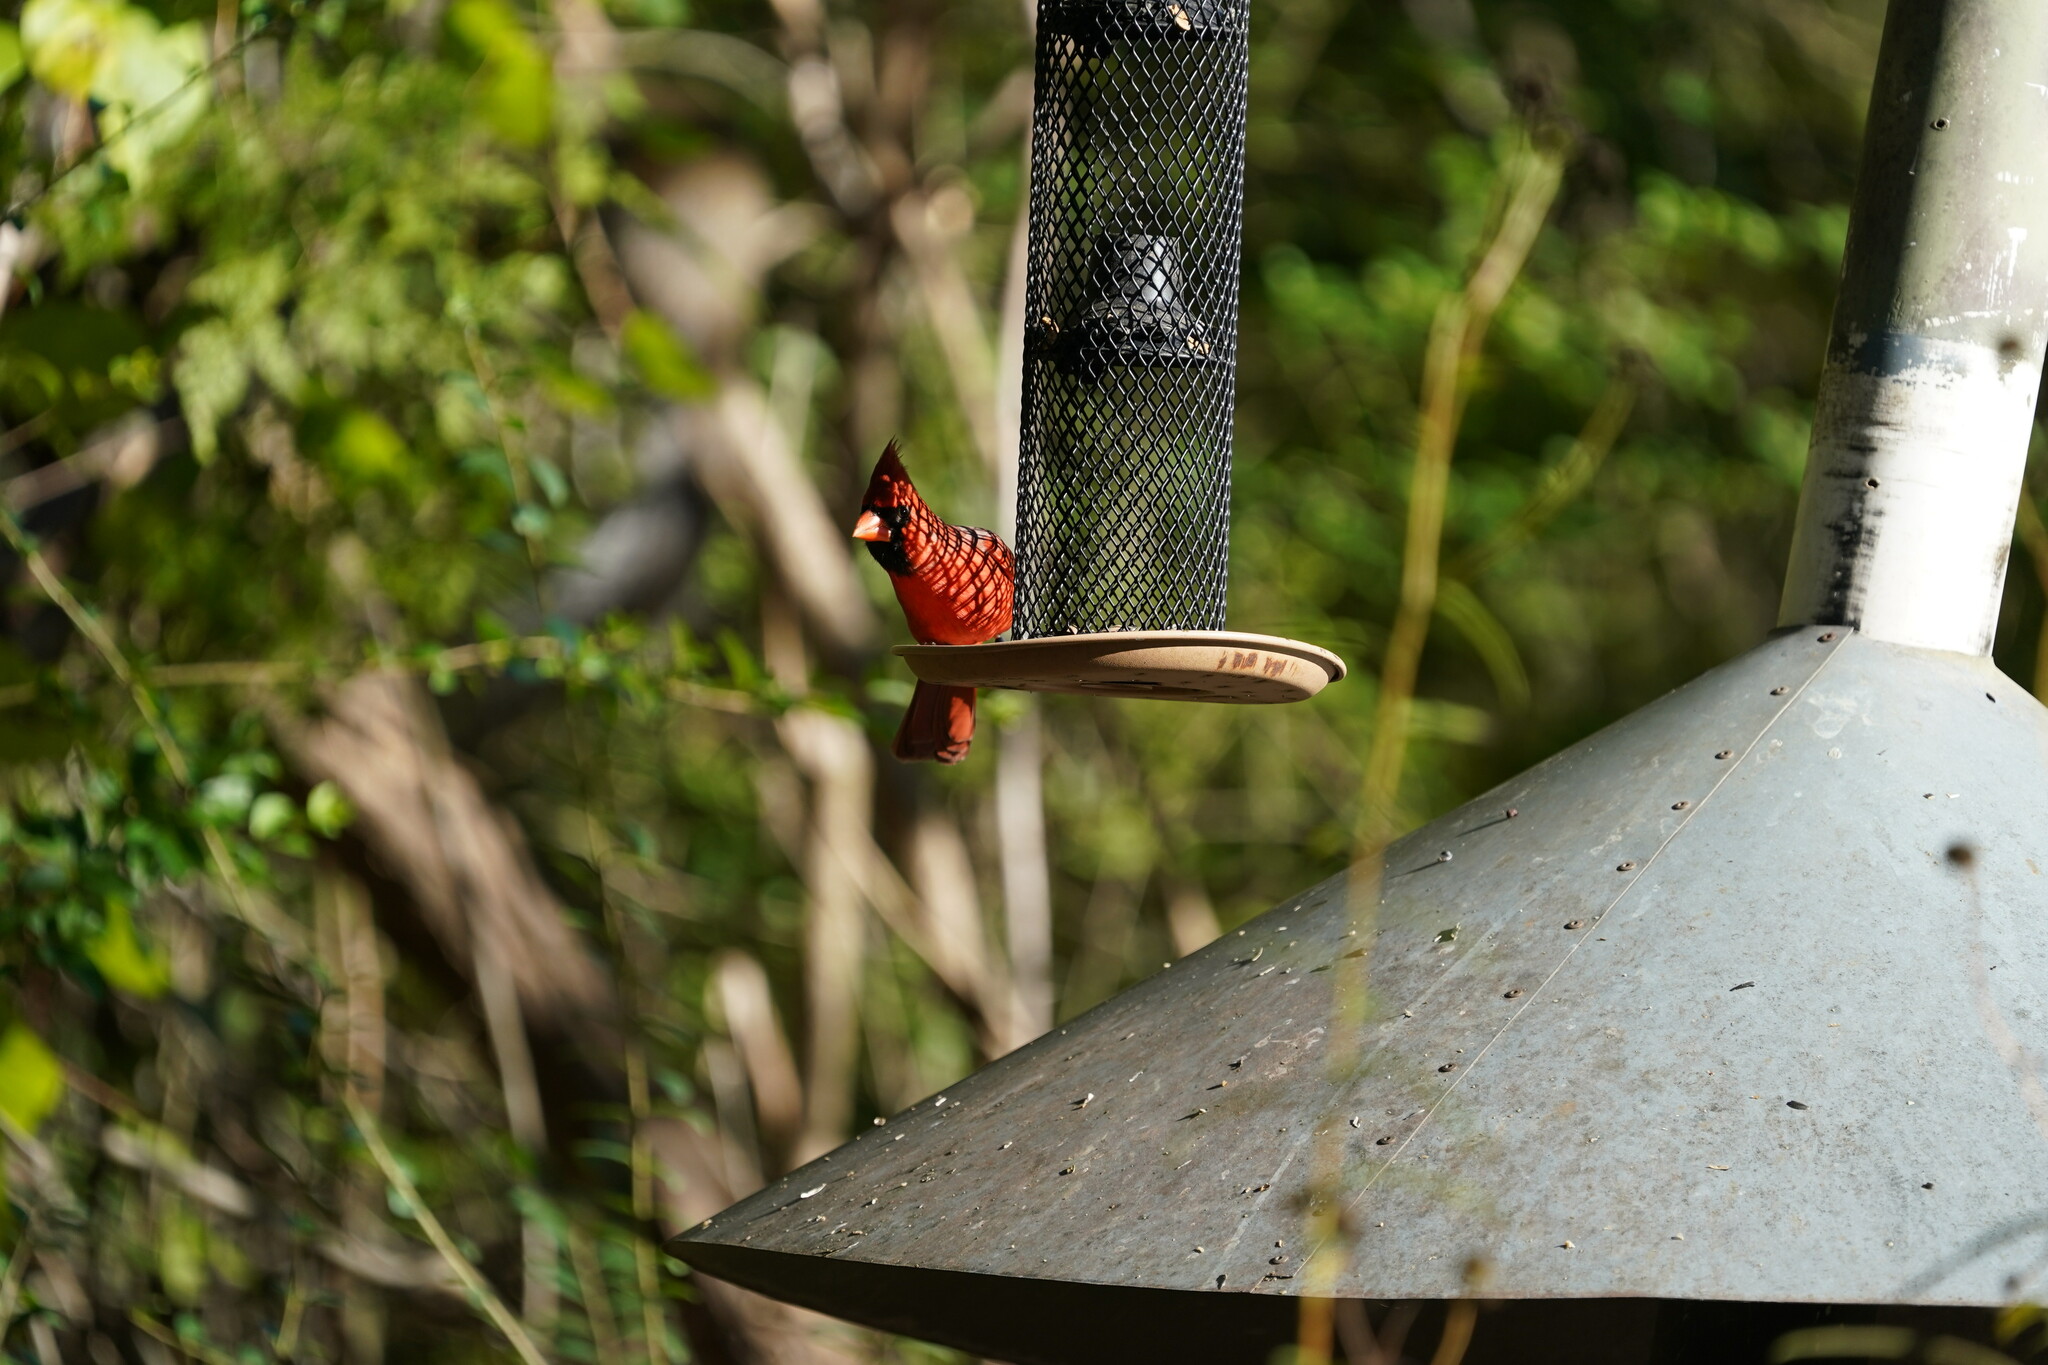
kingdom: Animalia
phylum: Chordata
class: Aves
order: Passeriformes
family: Cardinalidae
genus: Cardinalis
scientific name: Cardinalis cardinalis
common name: Northern cardinal
